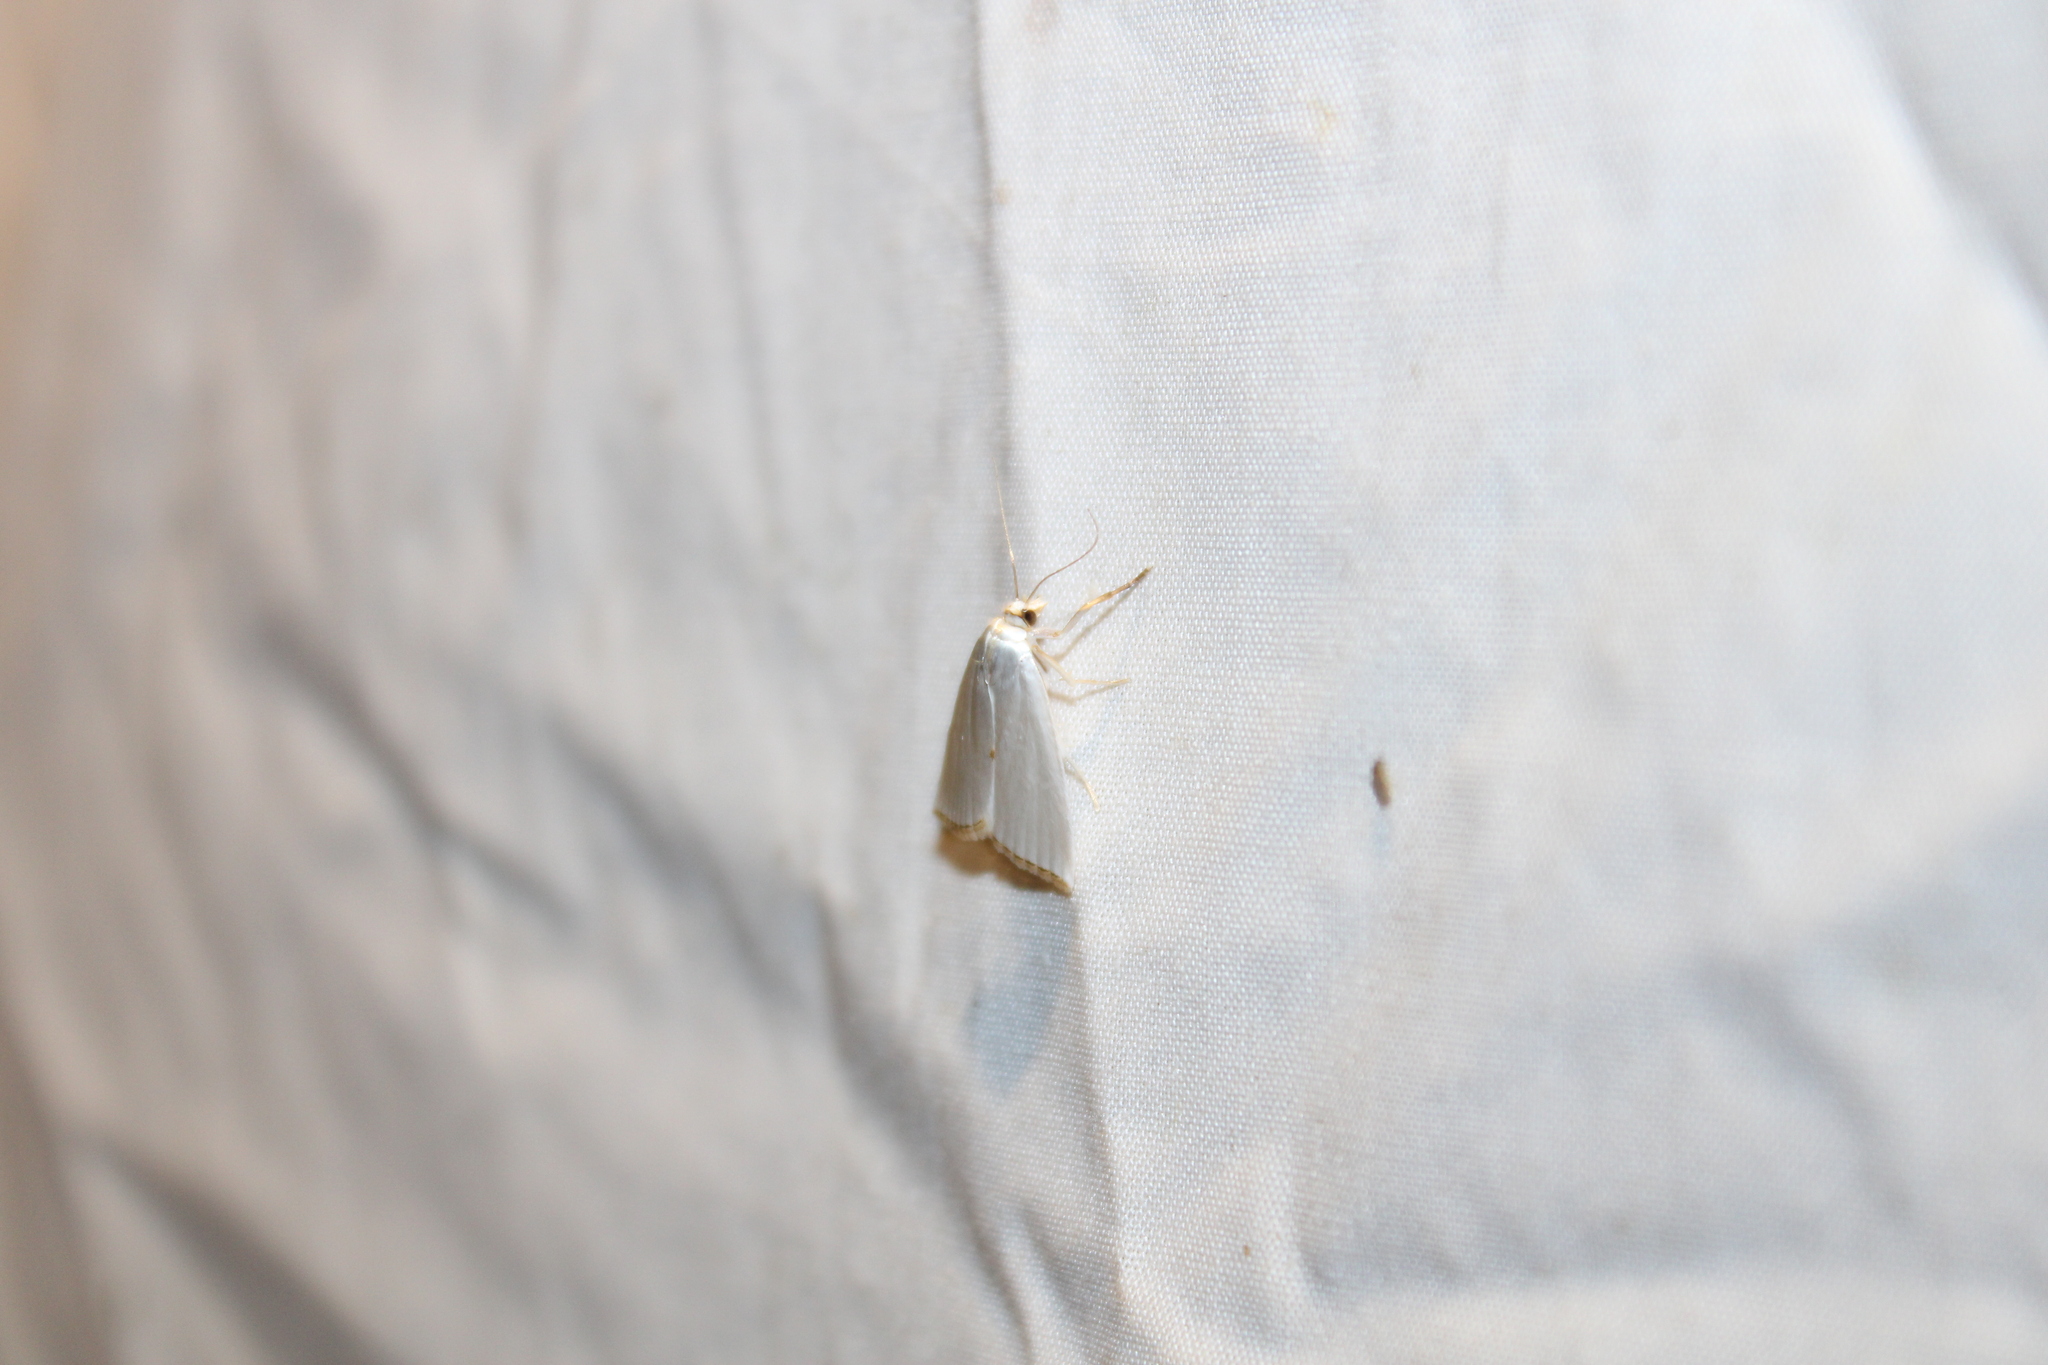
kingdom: Animalia
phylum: Arthropoda
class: Insecta
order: Lepidoptera
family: Crambidae
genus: Argyria
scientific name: Argyria nivalis
